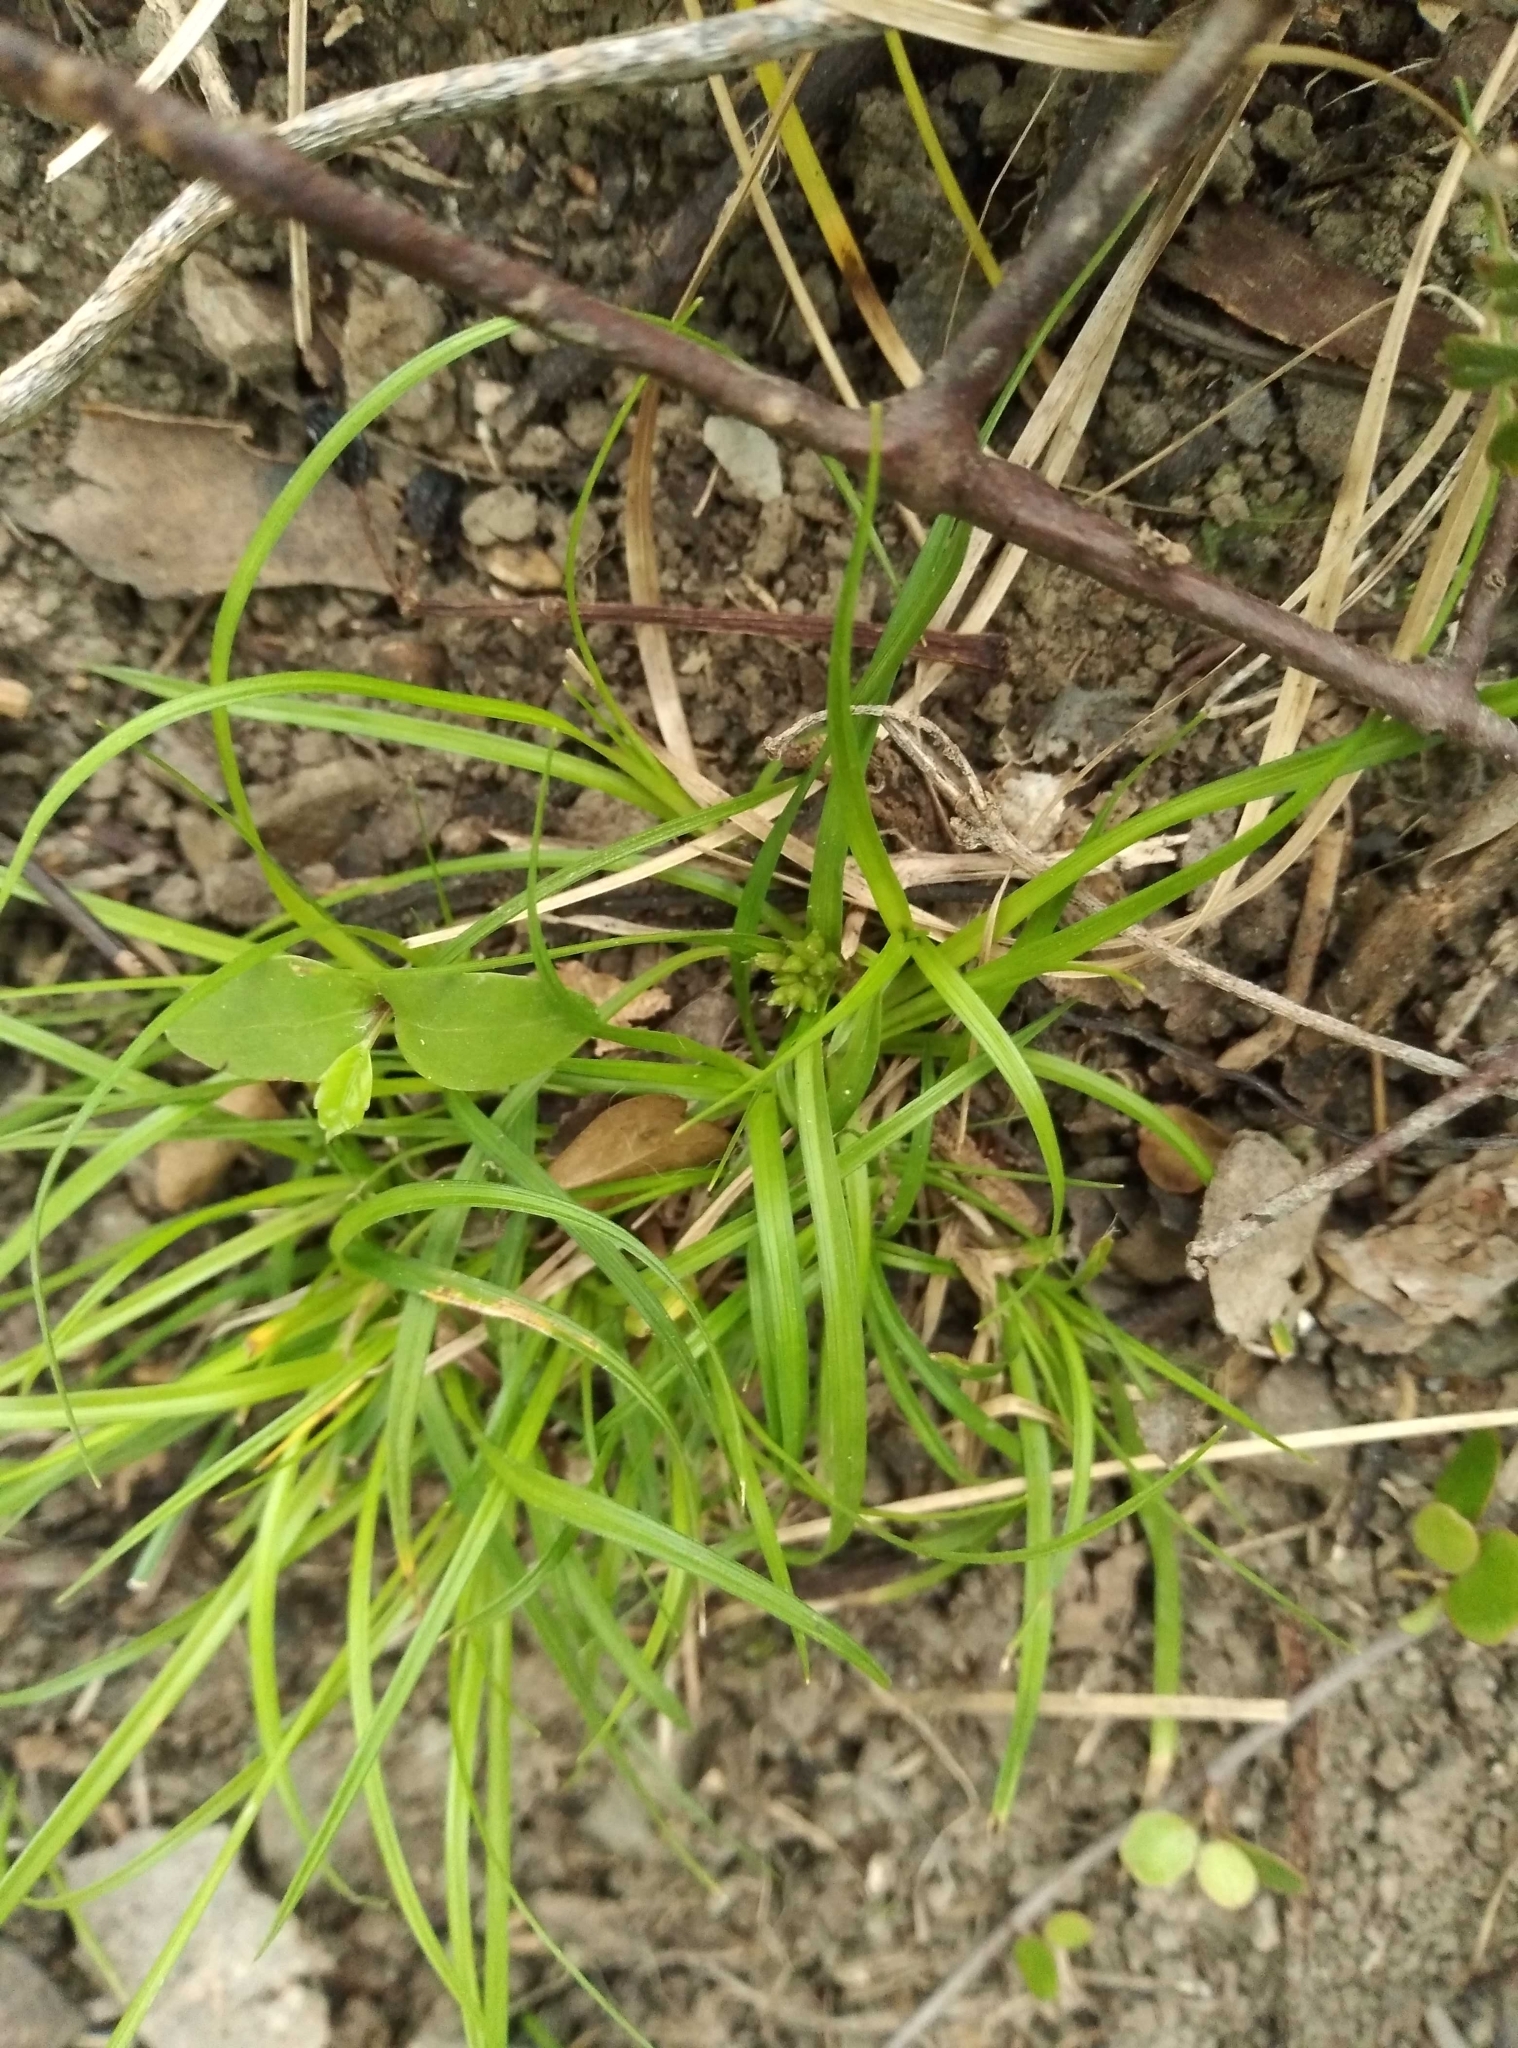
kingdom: Plantae
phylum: Tracheophyta
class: Liliopsida
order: Poales
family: Cyperaceae
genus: Carex
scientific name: Carex breviculmis
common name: Asian shortstem sedge
